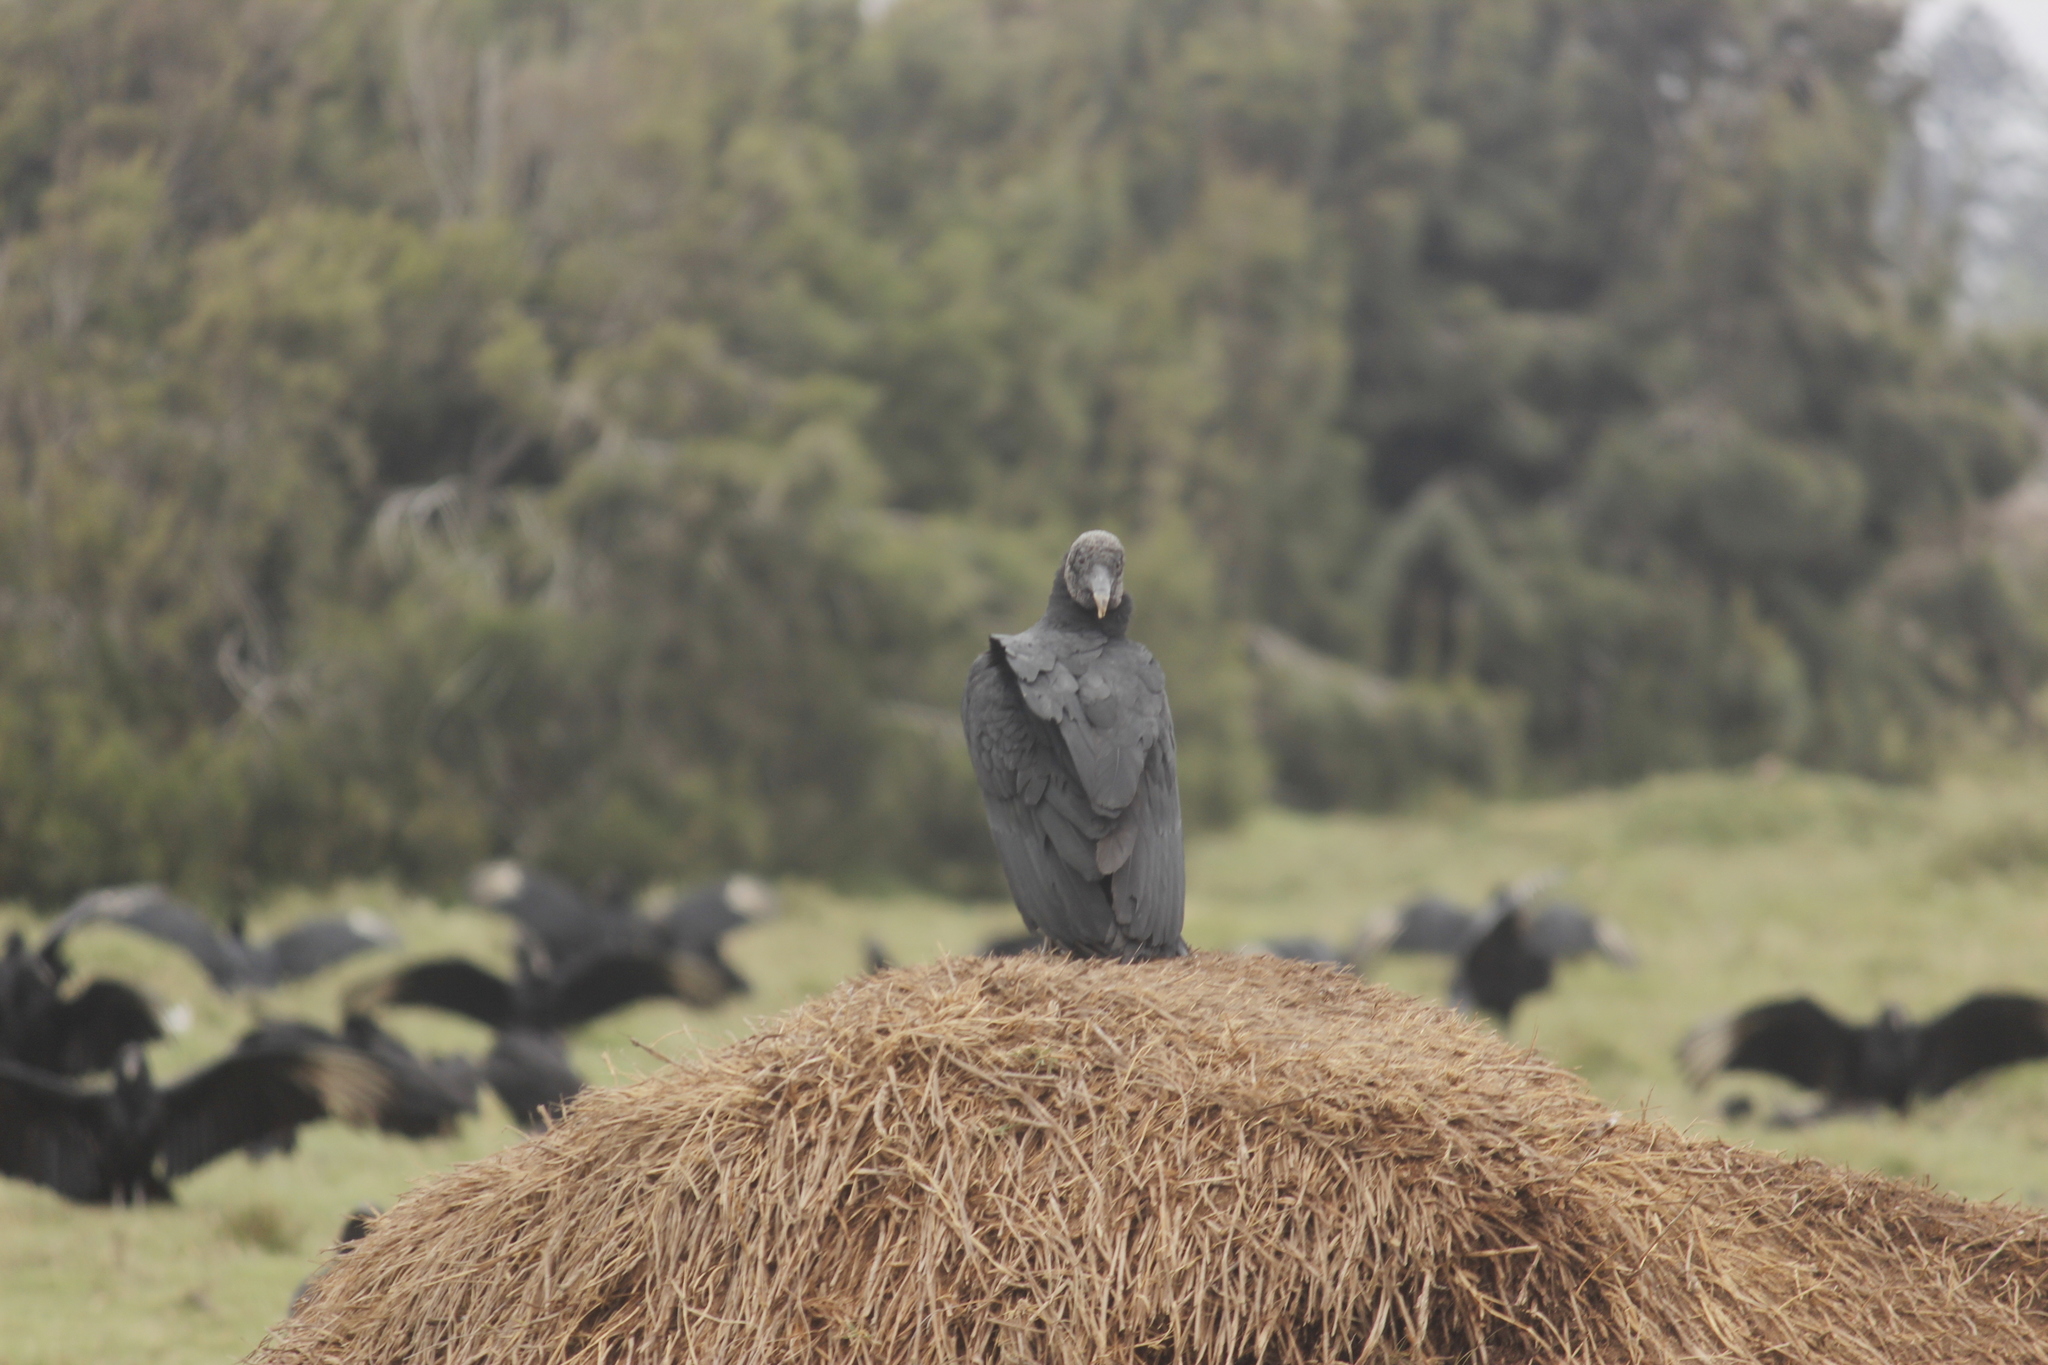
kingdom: Animalia
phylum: Chordata
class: Aves
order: Accipitriformes
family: Cathartidae
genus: Coragyps
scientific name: Coragyps atratus
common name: Black vulture
